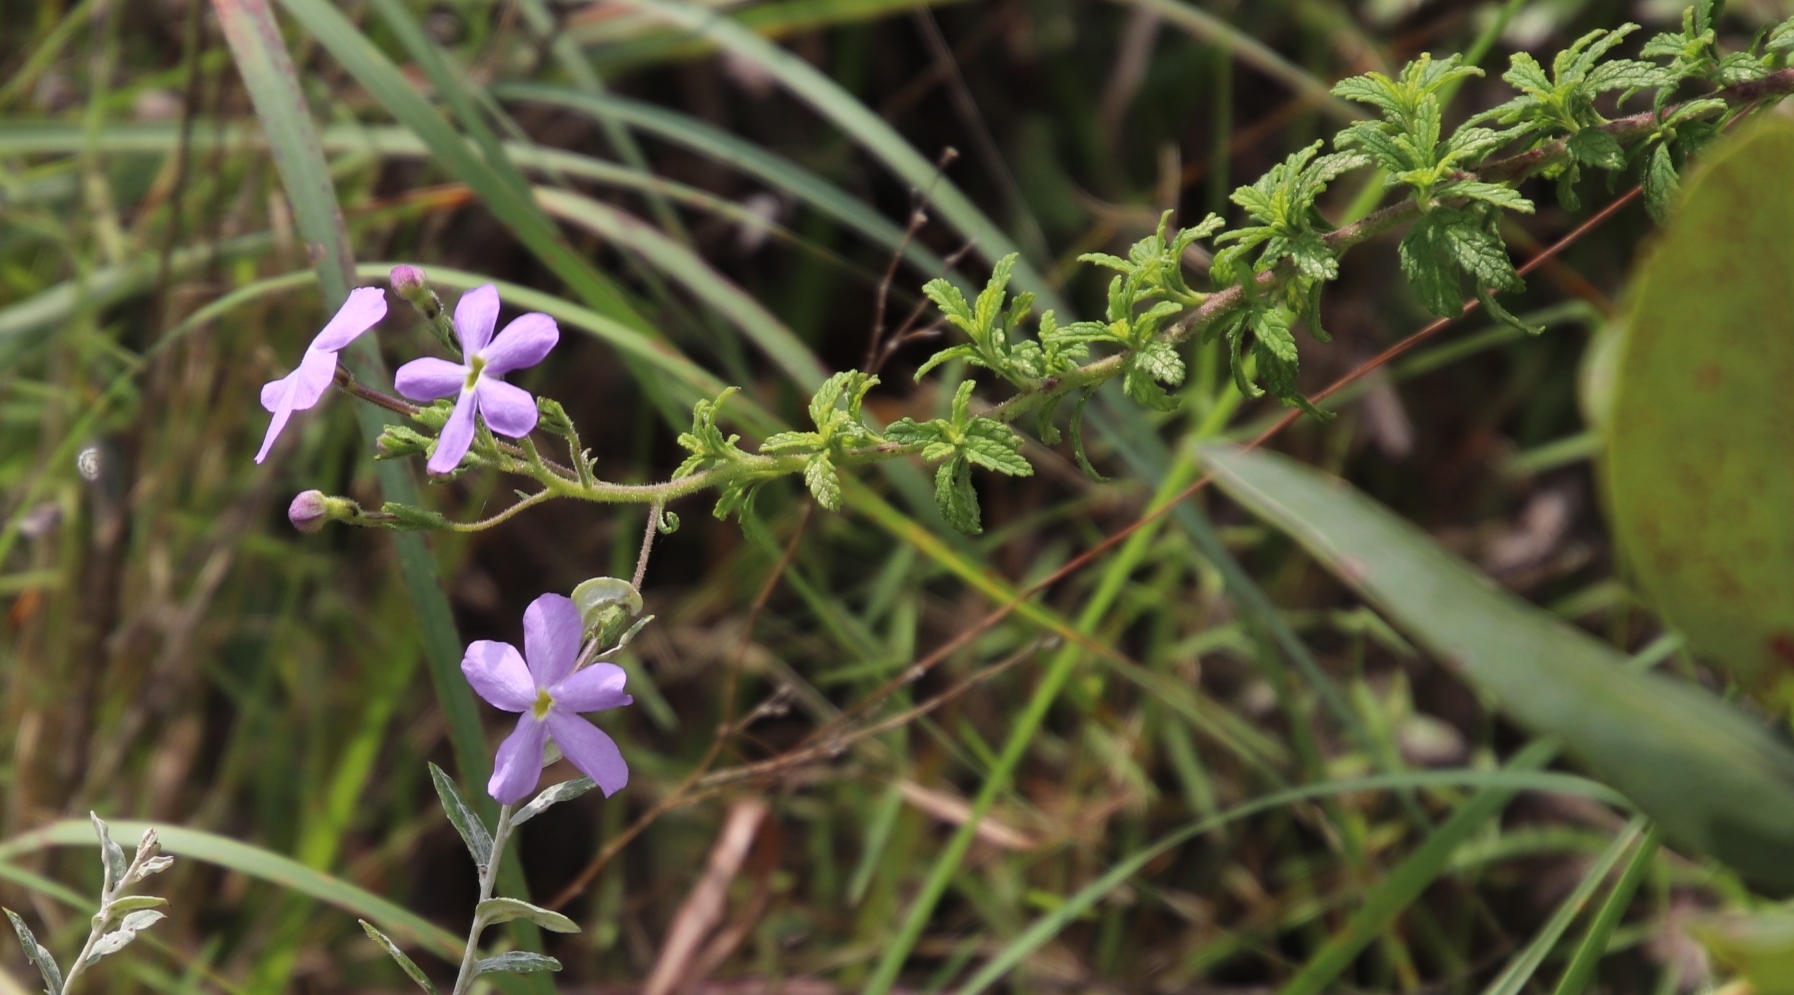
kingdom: Plantae
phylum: Tracheophyta
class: Magnoliopsida
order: Lamiales
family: Scrophulariaceae
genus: Jamesbrittenia
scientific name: Jamesbrittenia grandiflora
